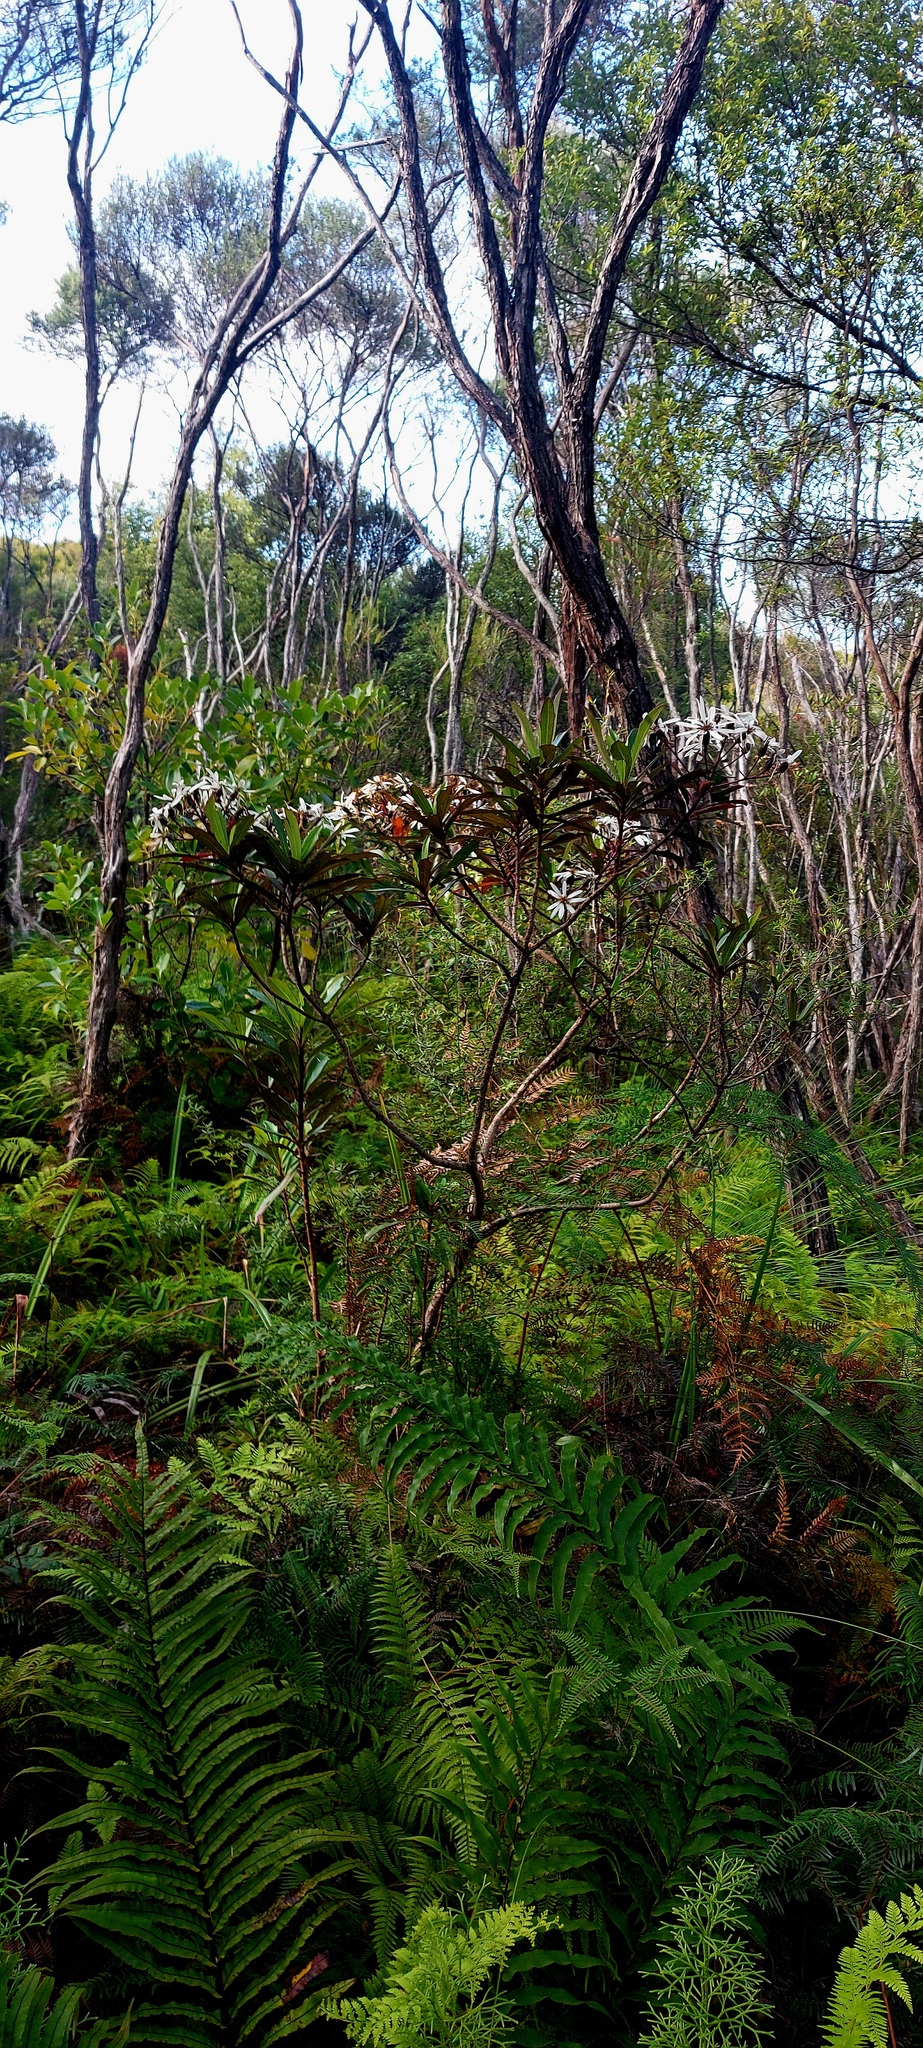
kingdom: Plantae
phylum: Tracheophyta
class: Magnoliopsida
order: Asterales
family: Asteraceae
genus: Brachyglottis
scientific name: Brachyglottis kirkii
